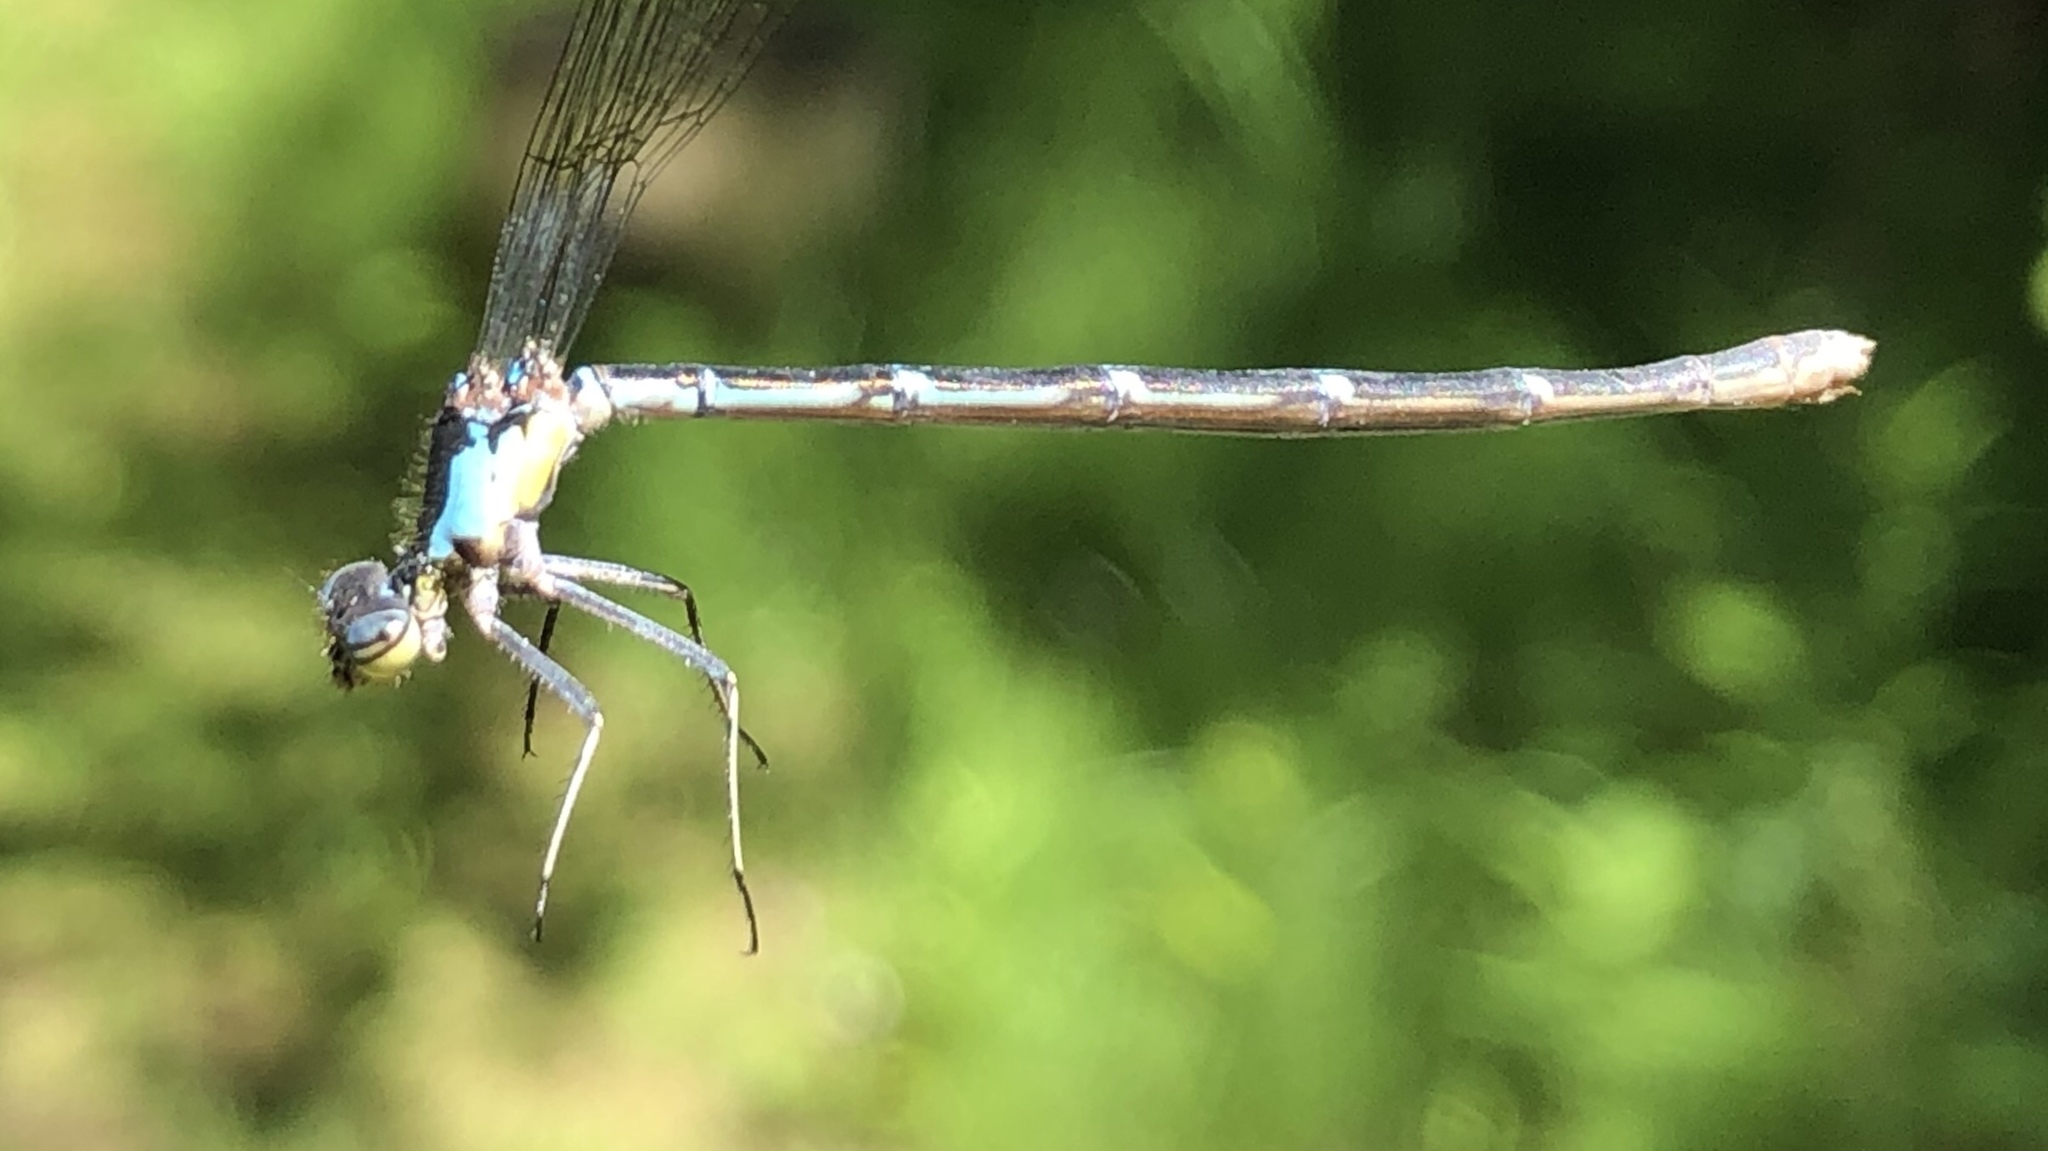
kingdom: Animalia
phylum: Arthropoda
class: Insecta
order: Odonata
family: Coenagrionidae
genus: Chromagrion
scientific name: Chromagrion conditum
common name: Aurora damsel
